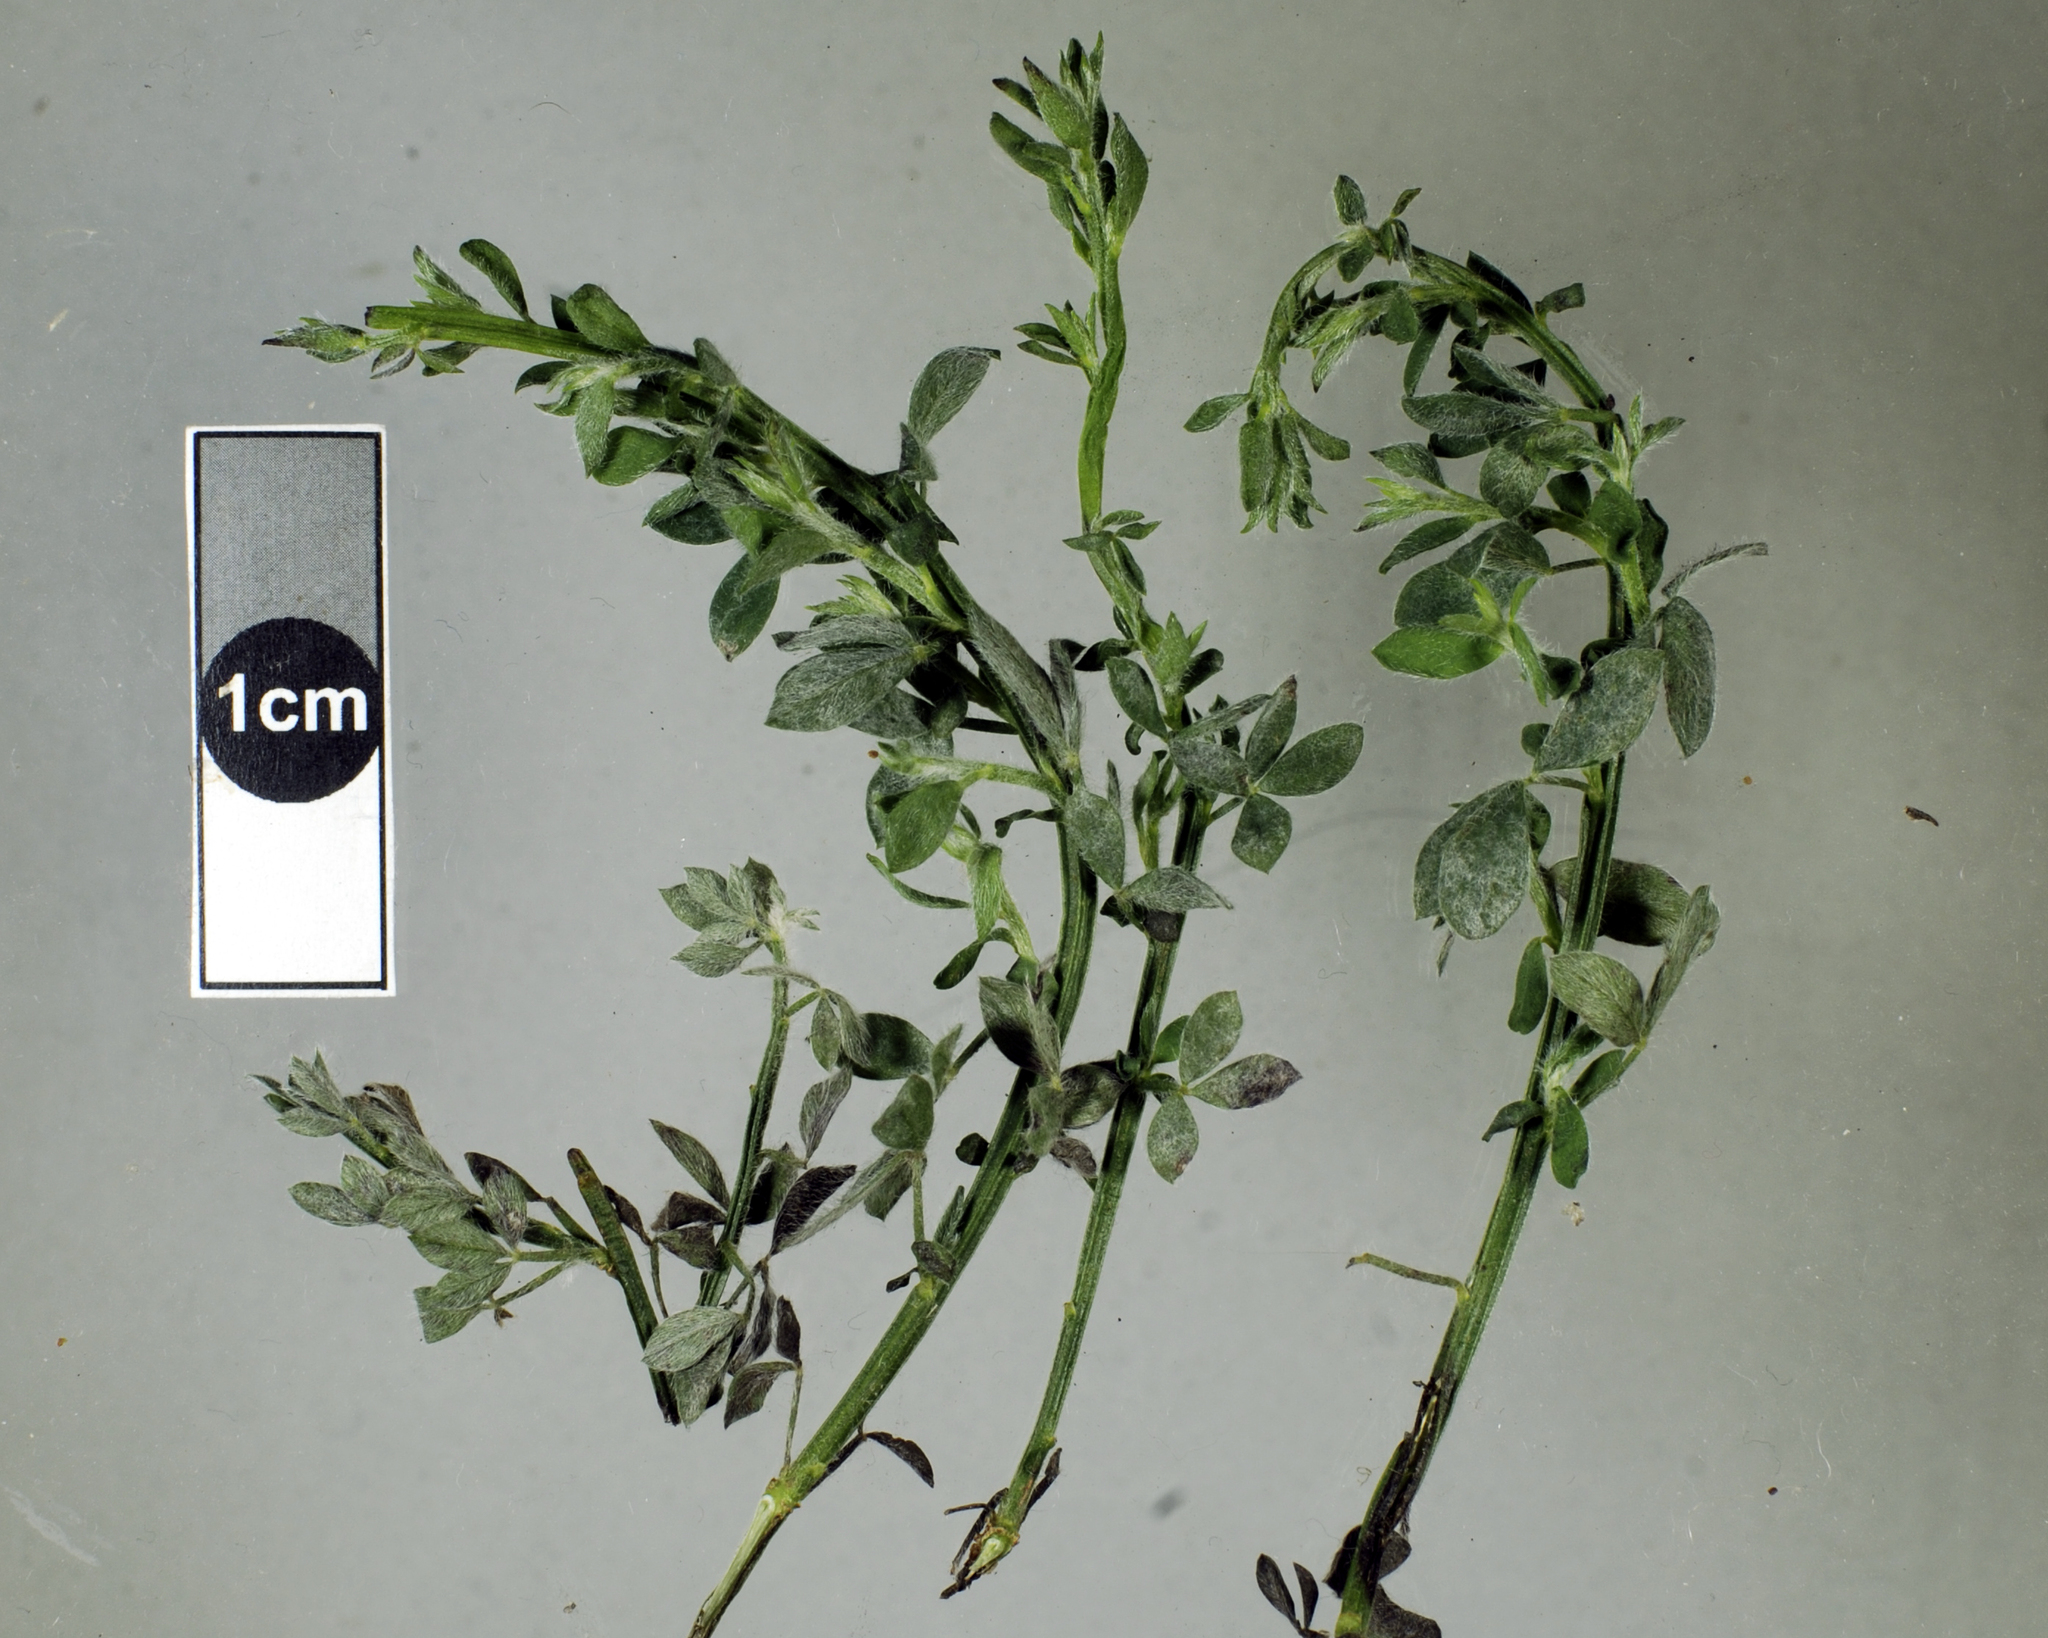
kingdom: Fungi
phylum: Ascomycota
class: Leotiomycetes
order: Helotiales
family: Erysiphaceae
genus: Erysiphe
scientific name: Erysiphe trifoliorum
